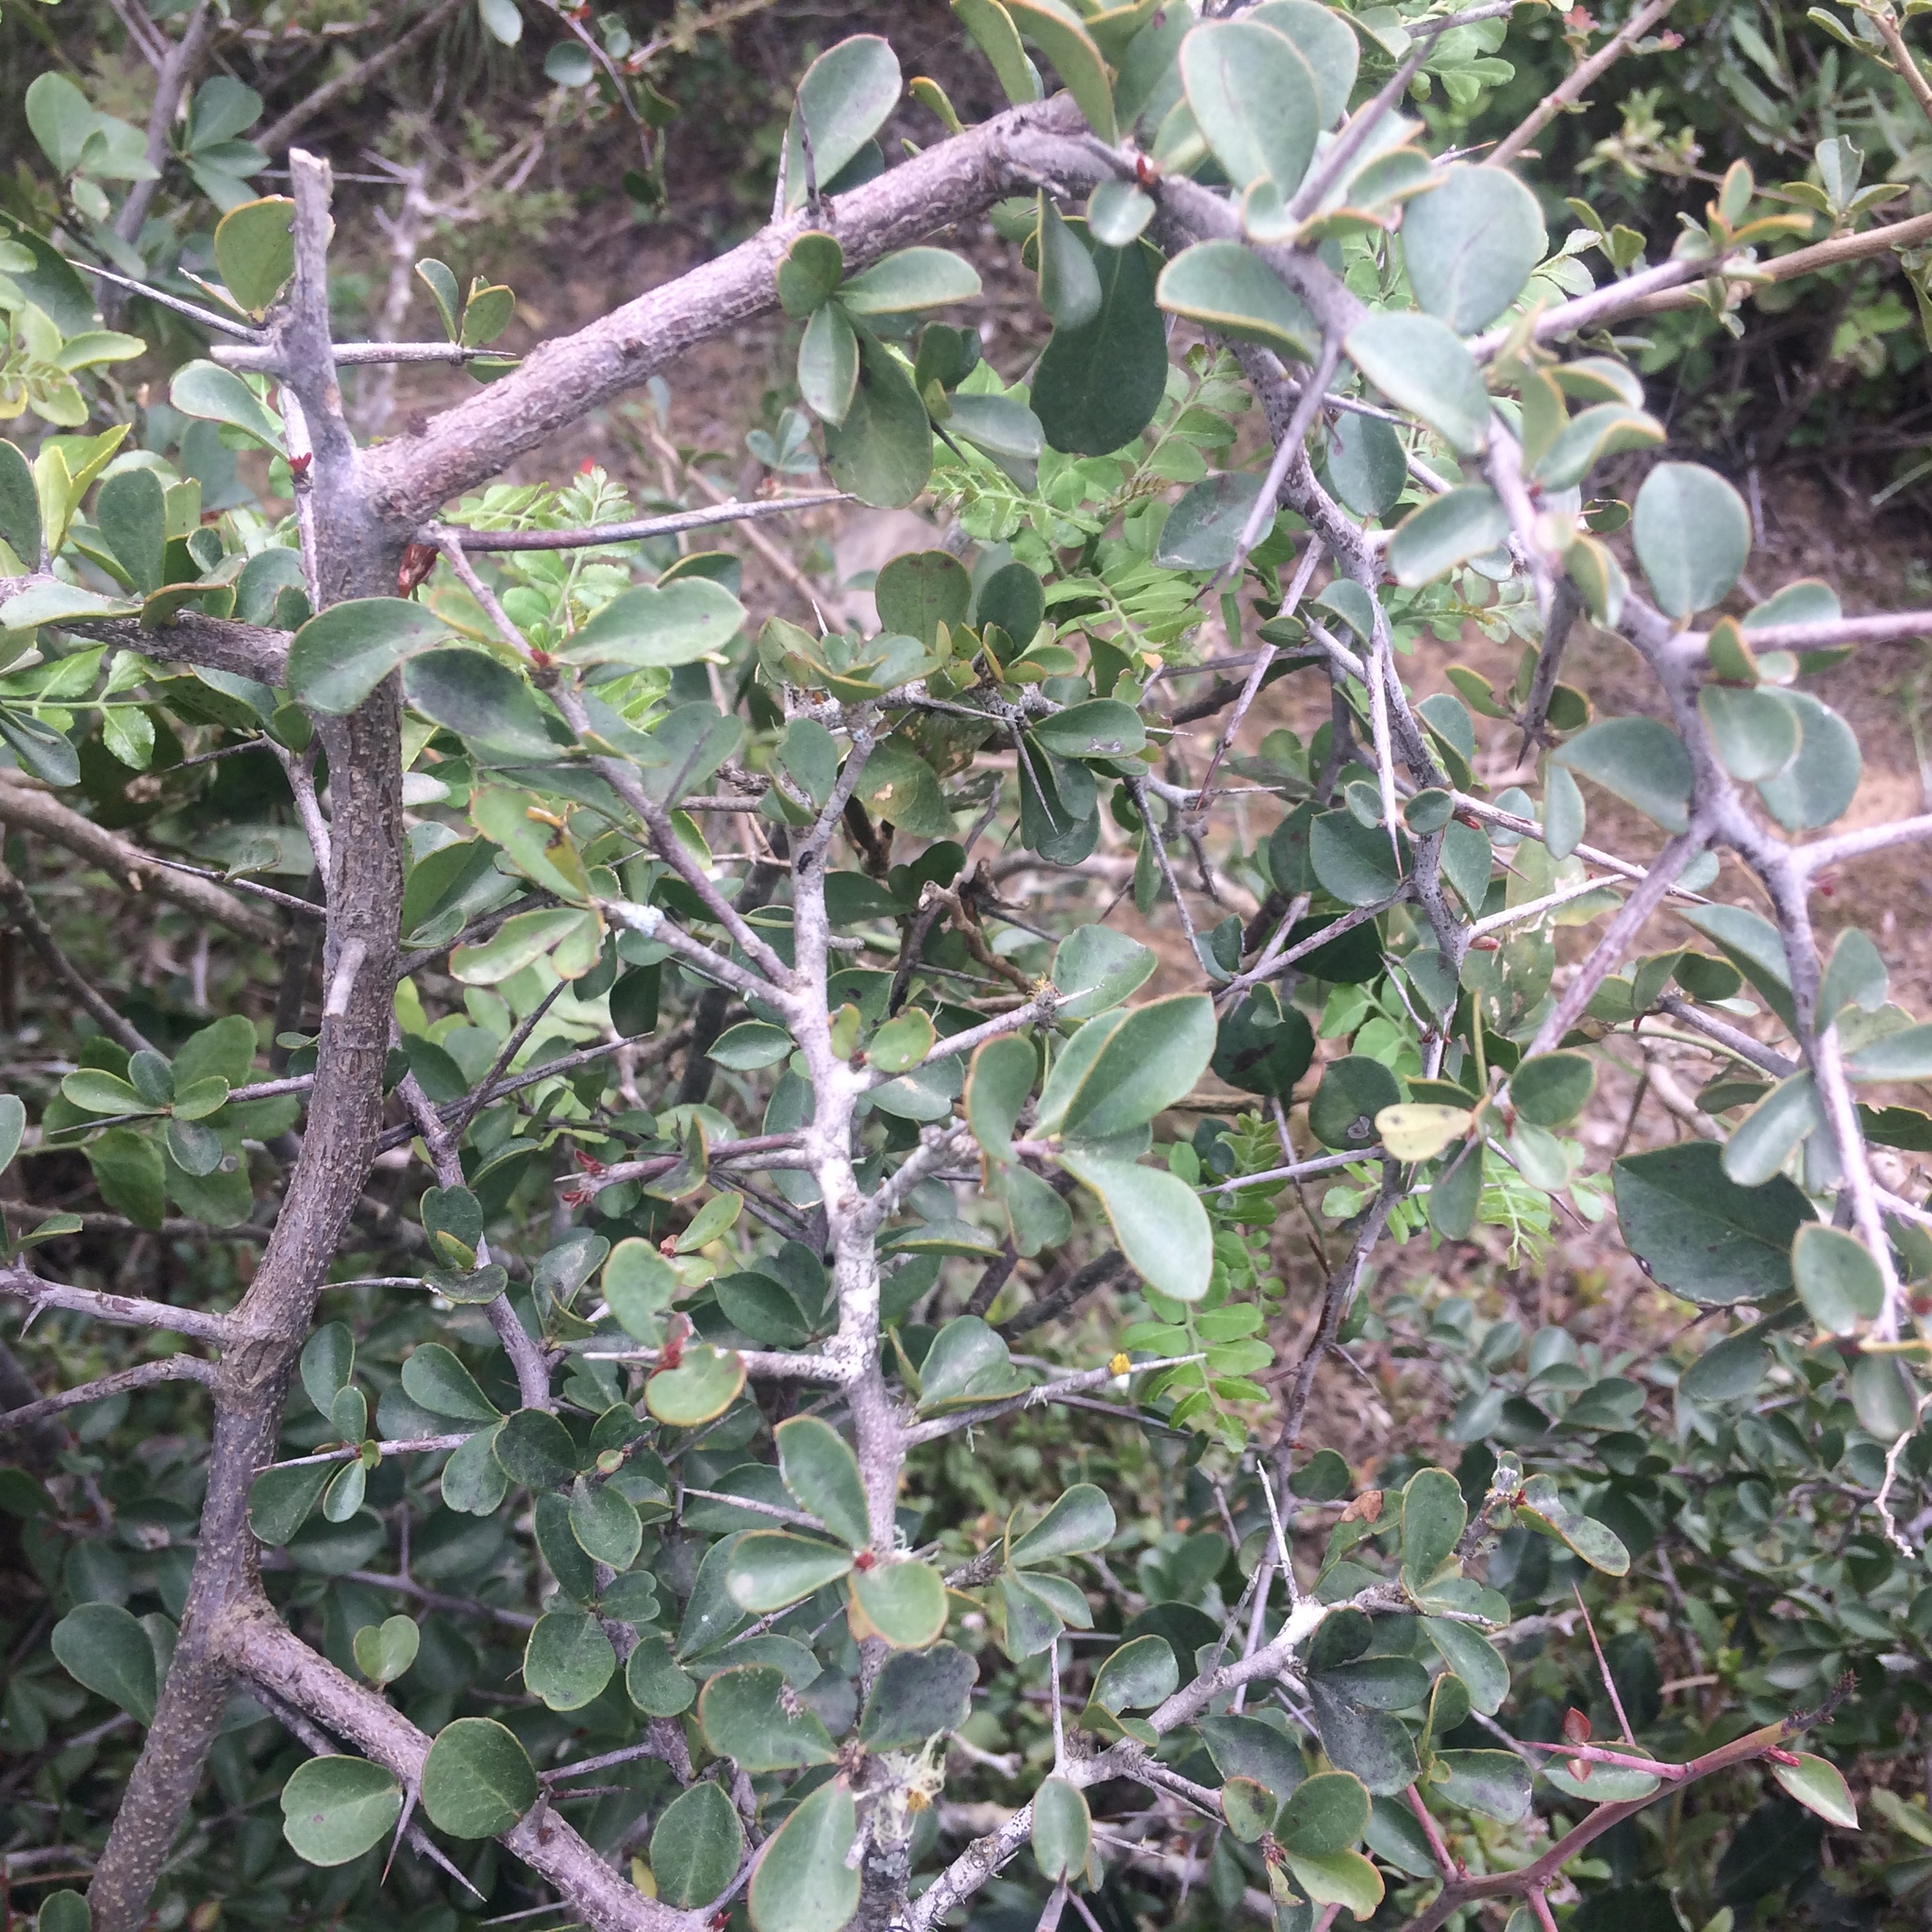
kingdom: Plantae
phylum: Tracheophyta
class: Magnoliopsida
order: Celastrales
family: Celastraceae
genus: Putterlickia
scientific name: Putterlickia pyracantha
